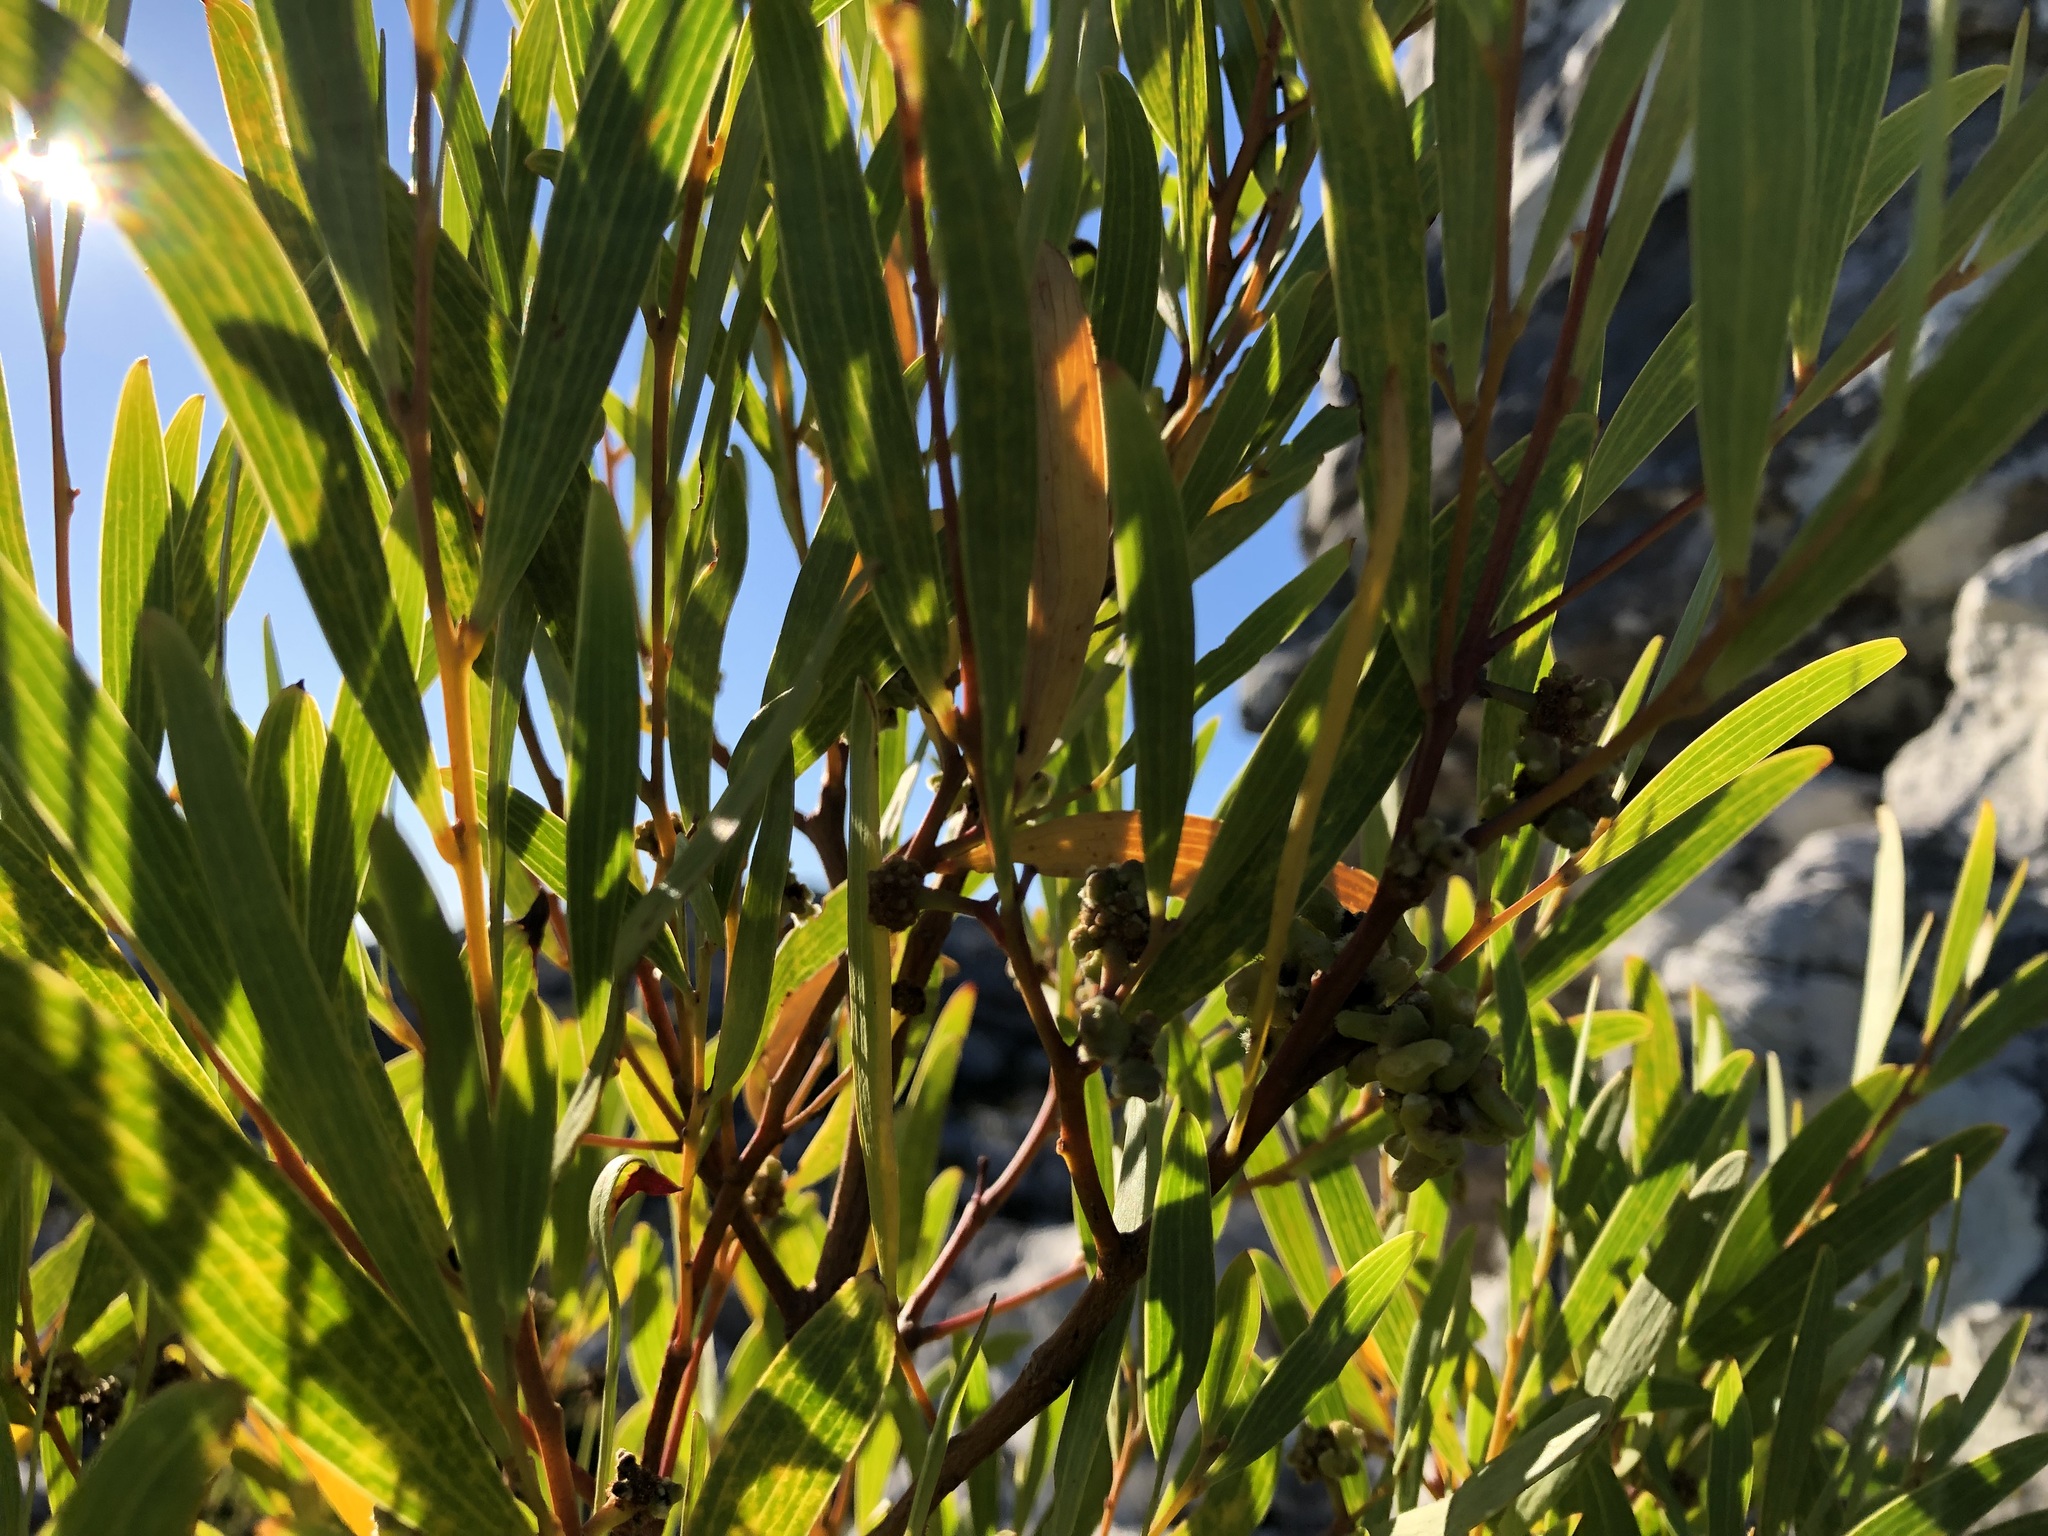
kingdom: Plantae
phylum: Tracheophyta
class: Magnoliopsida
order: Fabales
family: Fabaceae
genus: Acacia
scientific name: Acacia cyclops
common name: Coastal wattle
